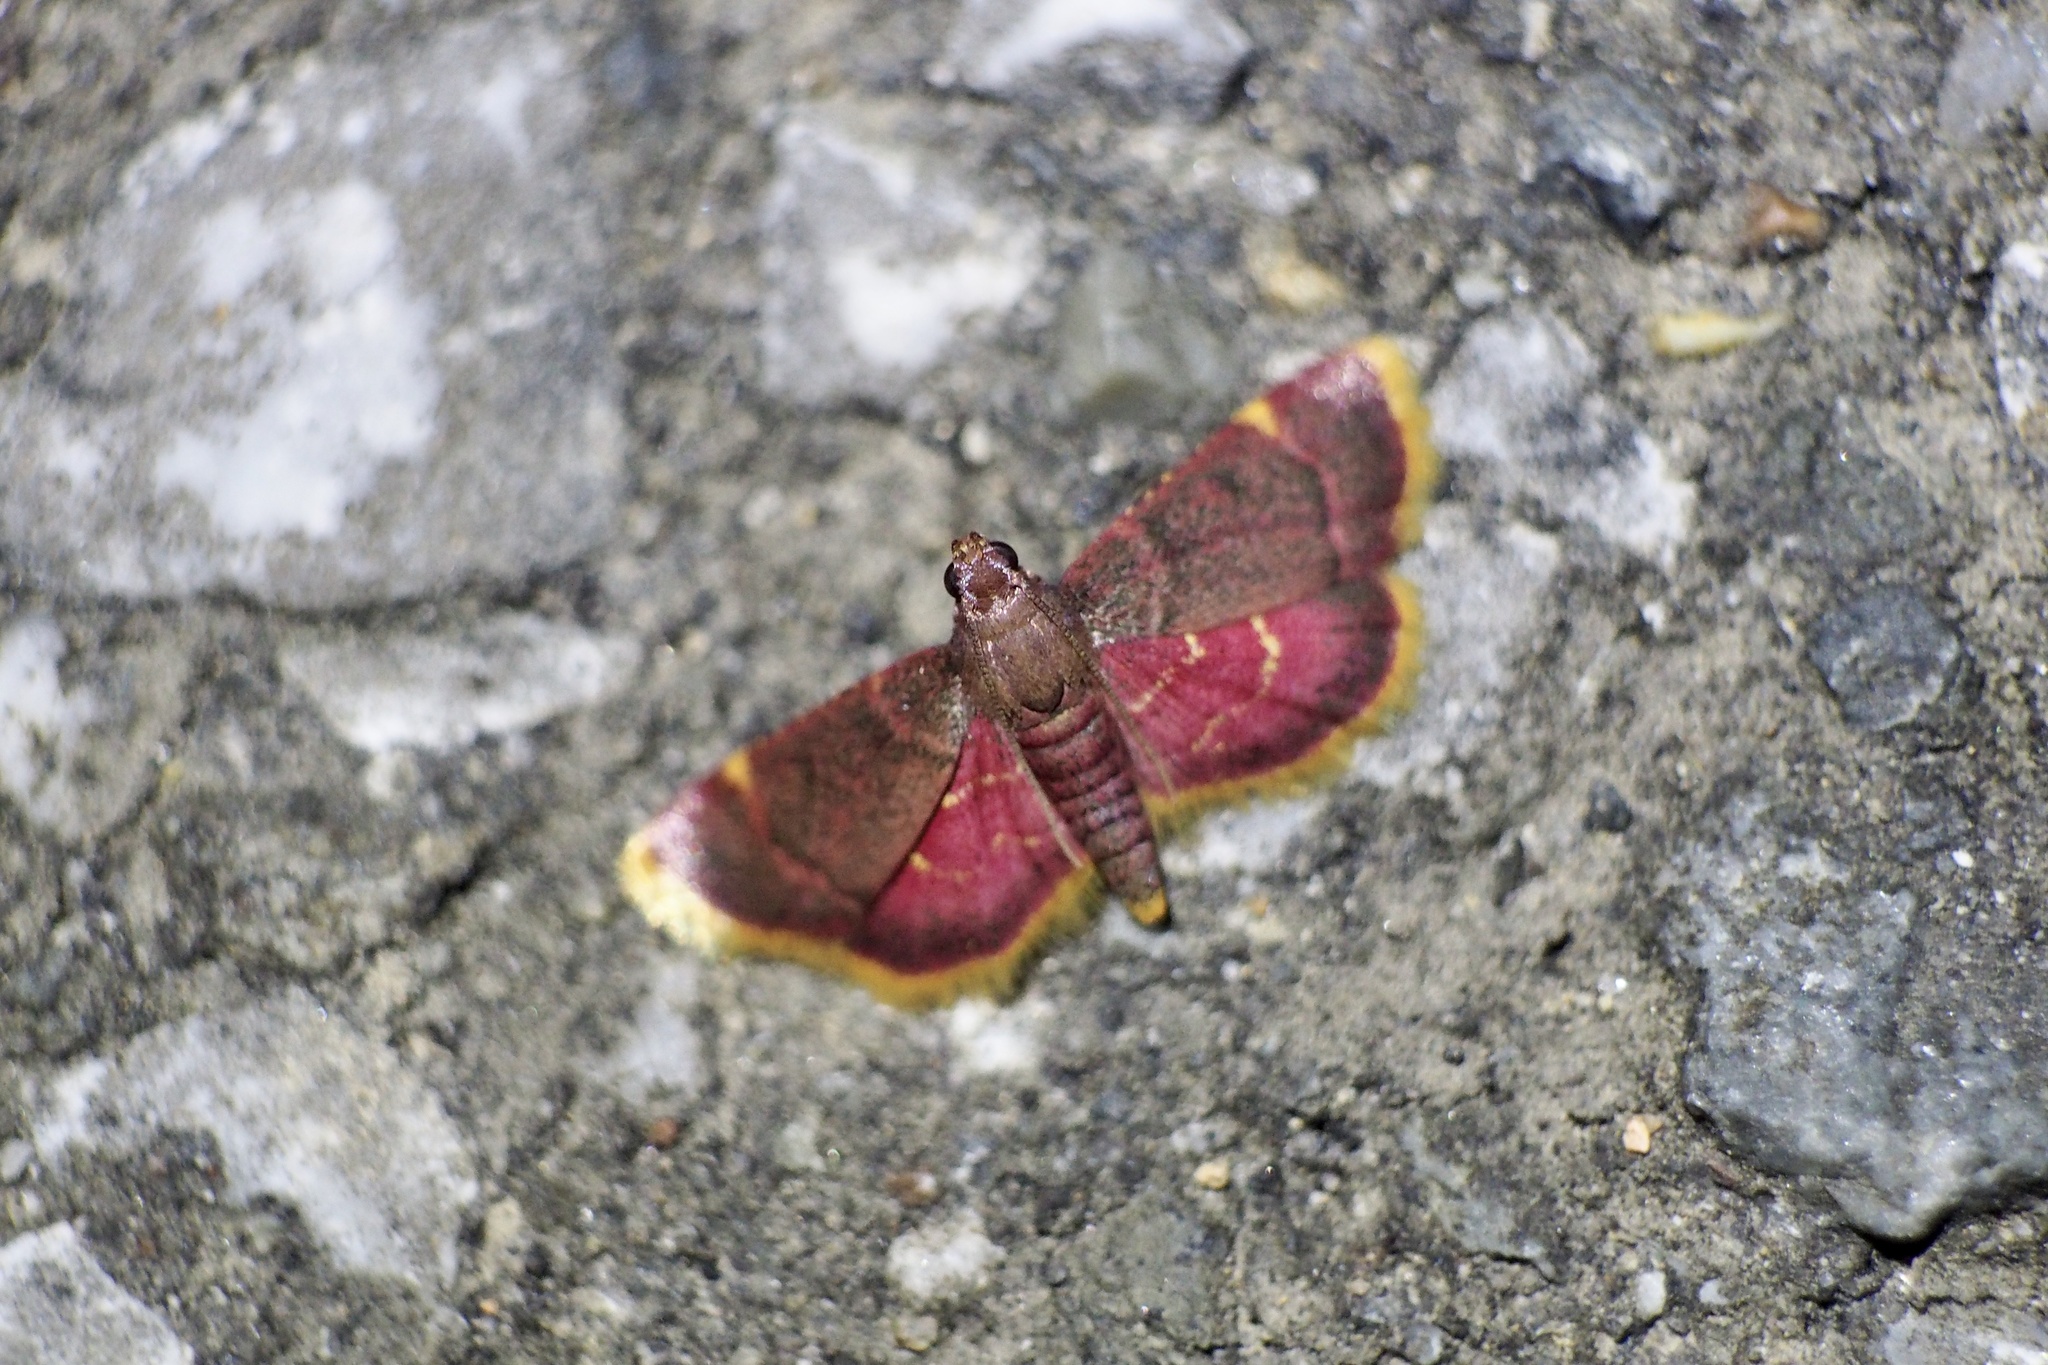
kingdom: Animalia
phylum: Arthropoda
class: Insecta
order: Lepidoptera
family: Pyralidae
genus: Hypsopygia
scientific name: Hypsopygia regina
